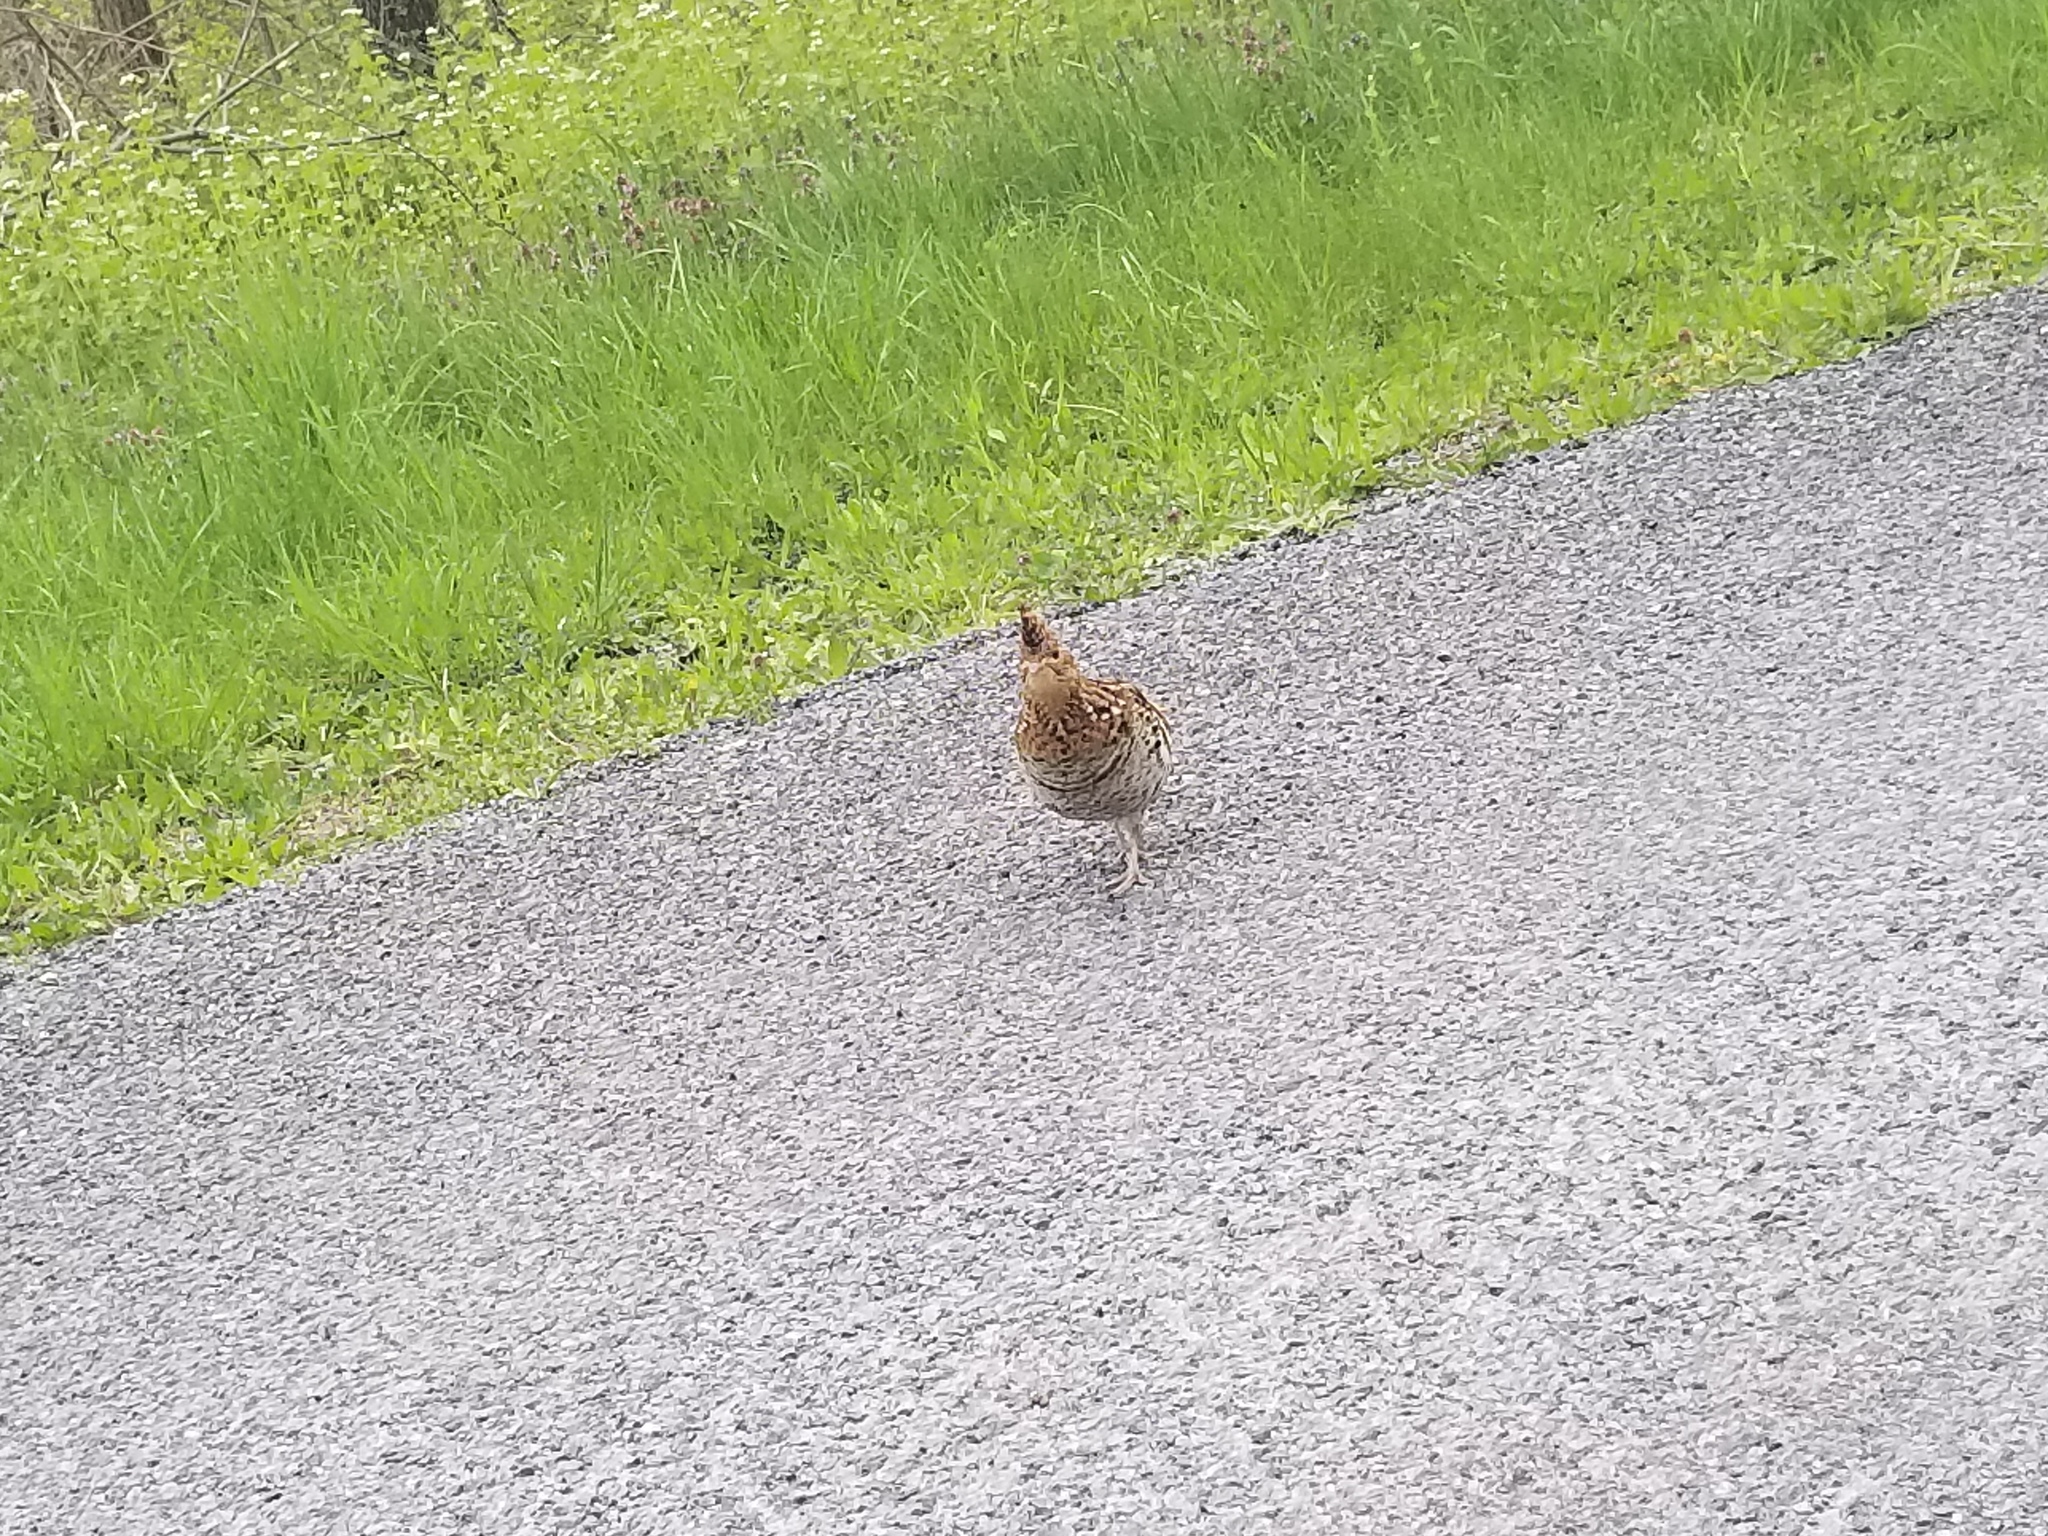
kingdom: Animalia
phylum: Chordata
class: Aves
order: Galliformes
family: Phasianidae
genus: Bonasa
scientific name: Bonasa umbellus
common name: Ruffed grouse
